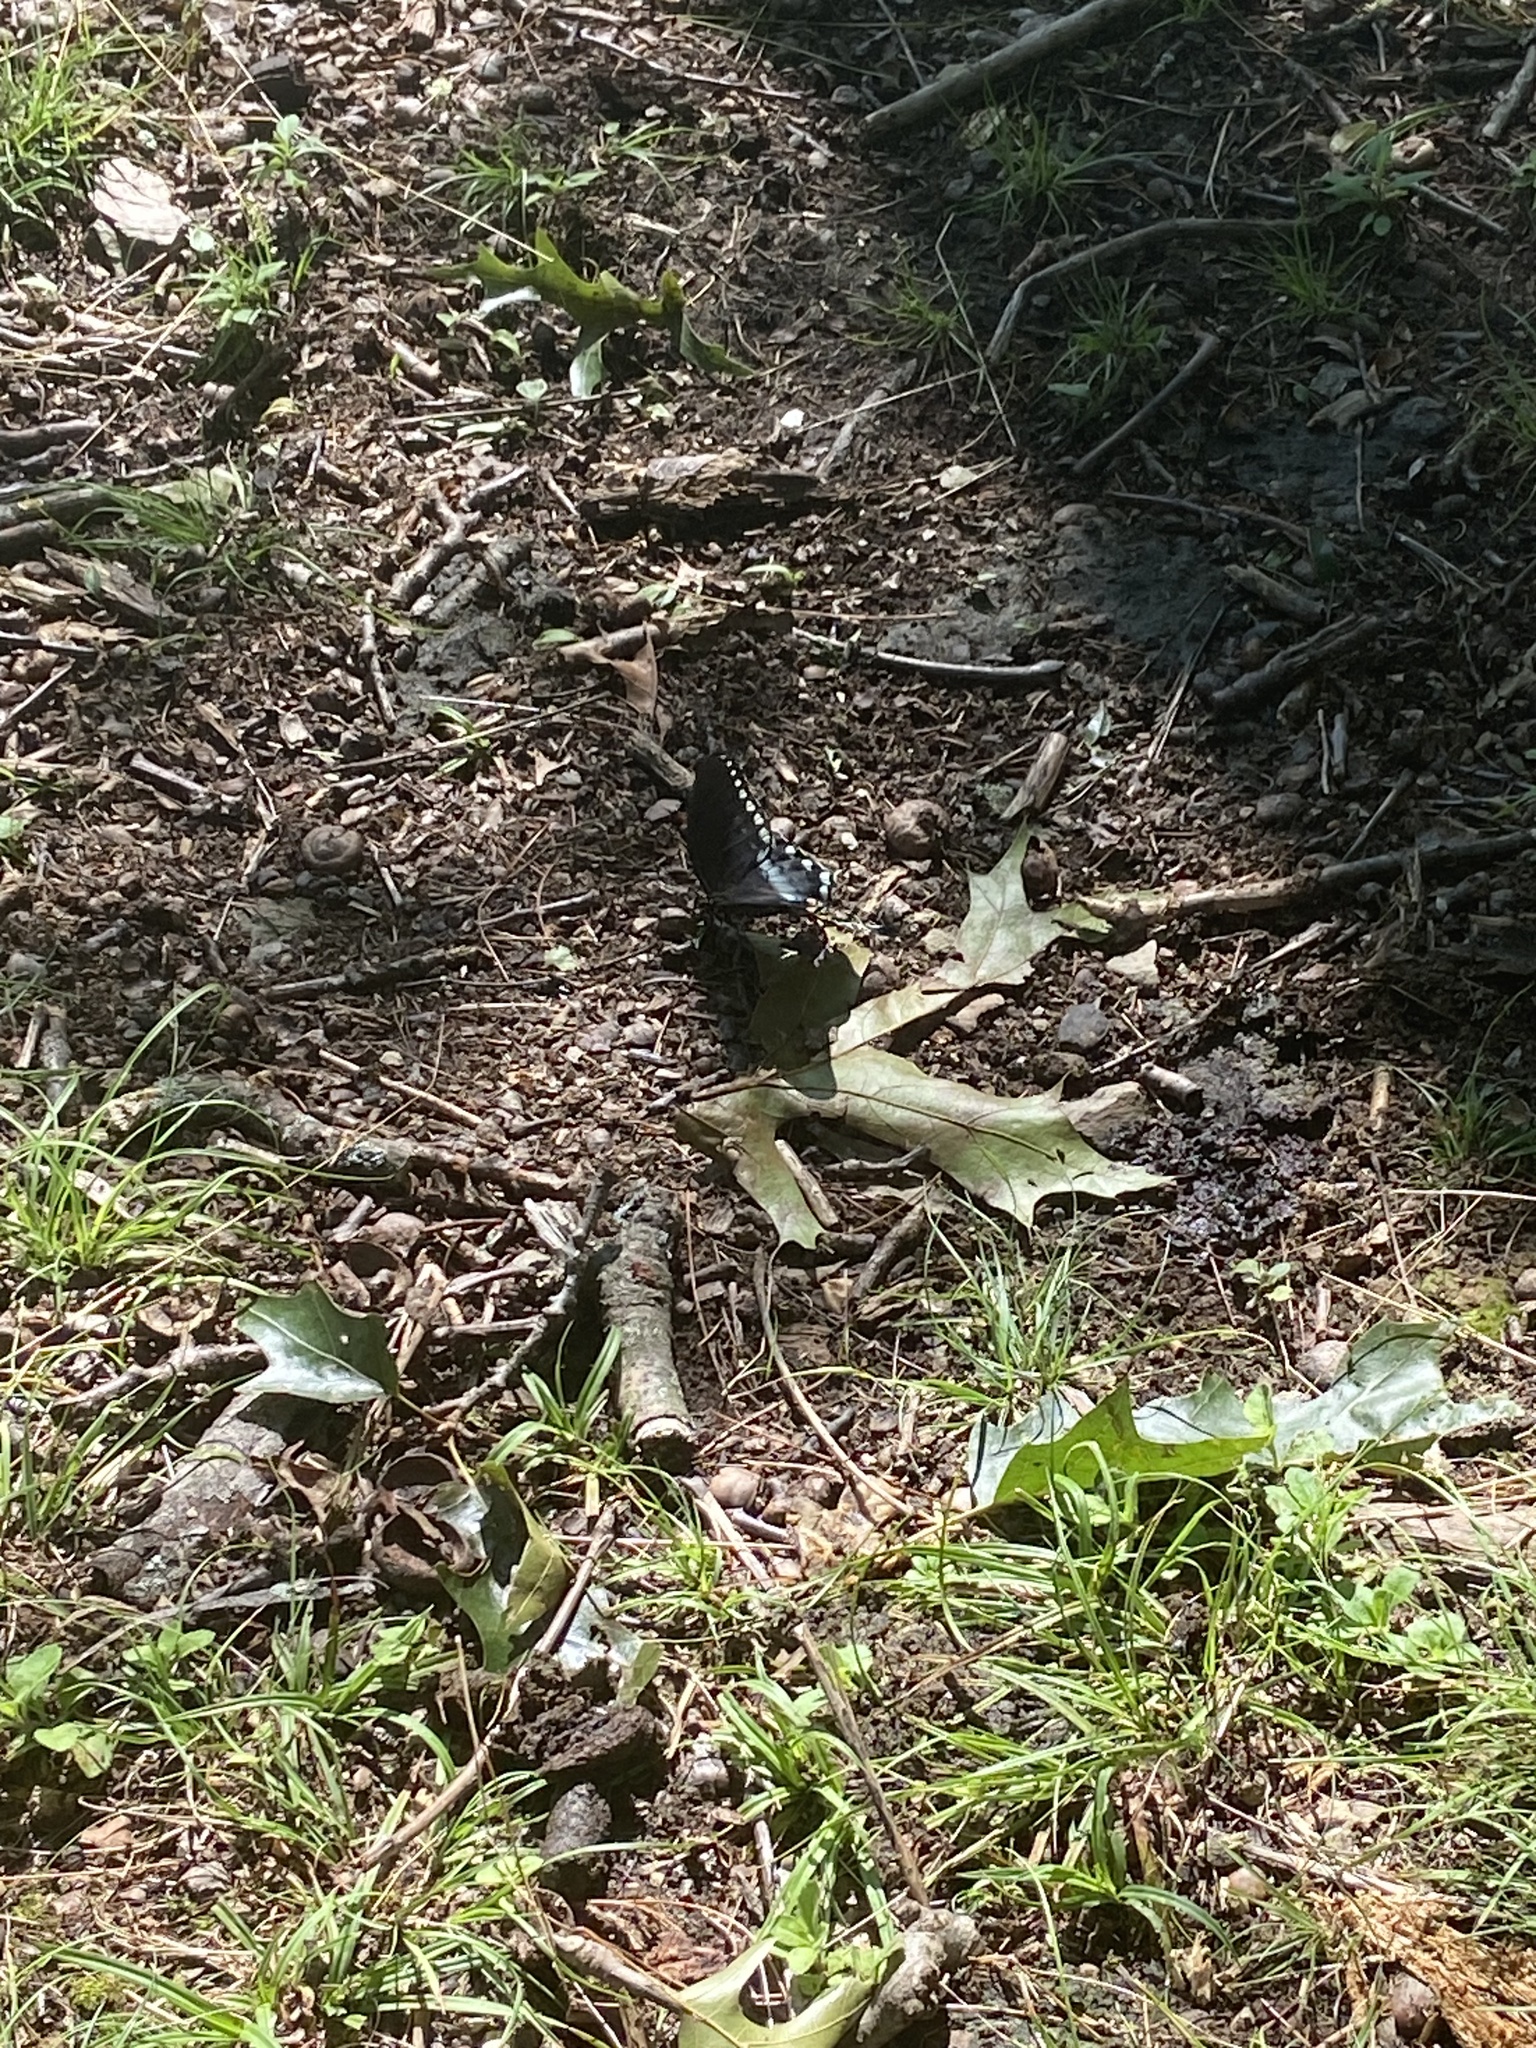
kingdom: Animalia
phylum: Arthropoda
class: Insecta
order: Lepidoptera
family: Papilionidae
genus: Papilio
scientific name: Papilio troilus
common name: Spicebush swallowtail
